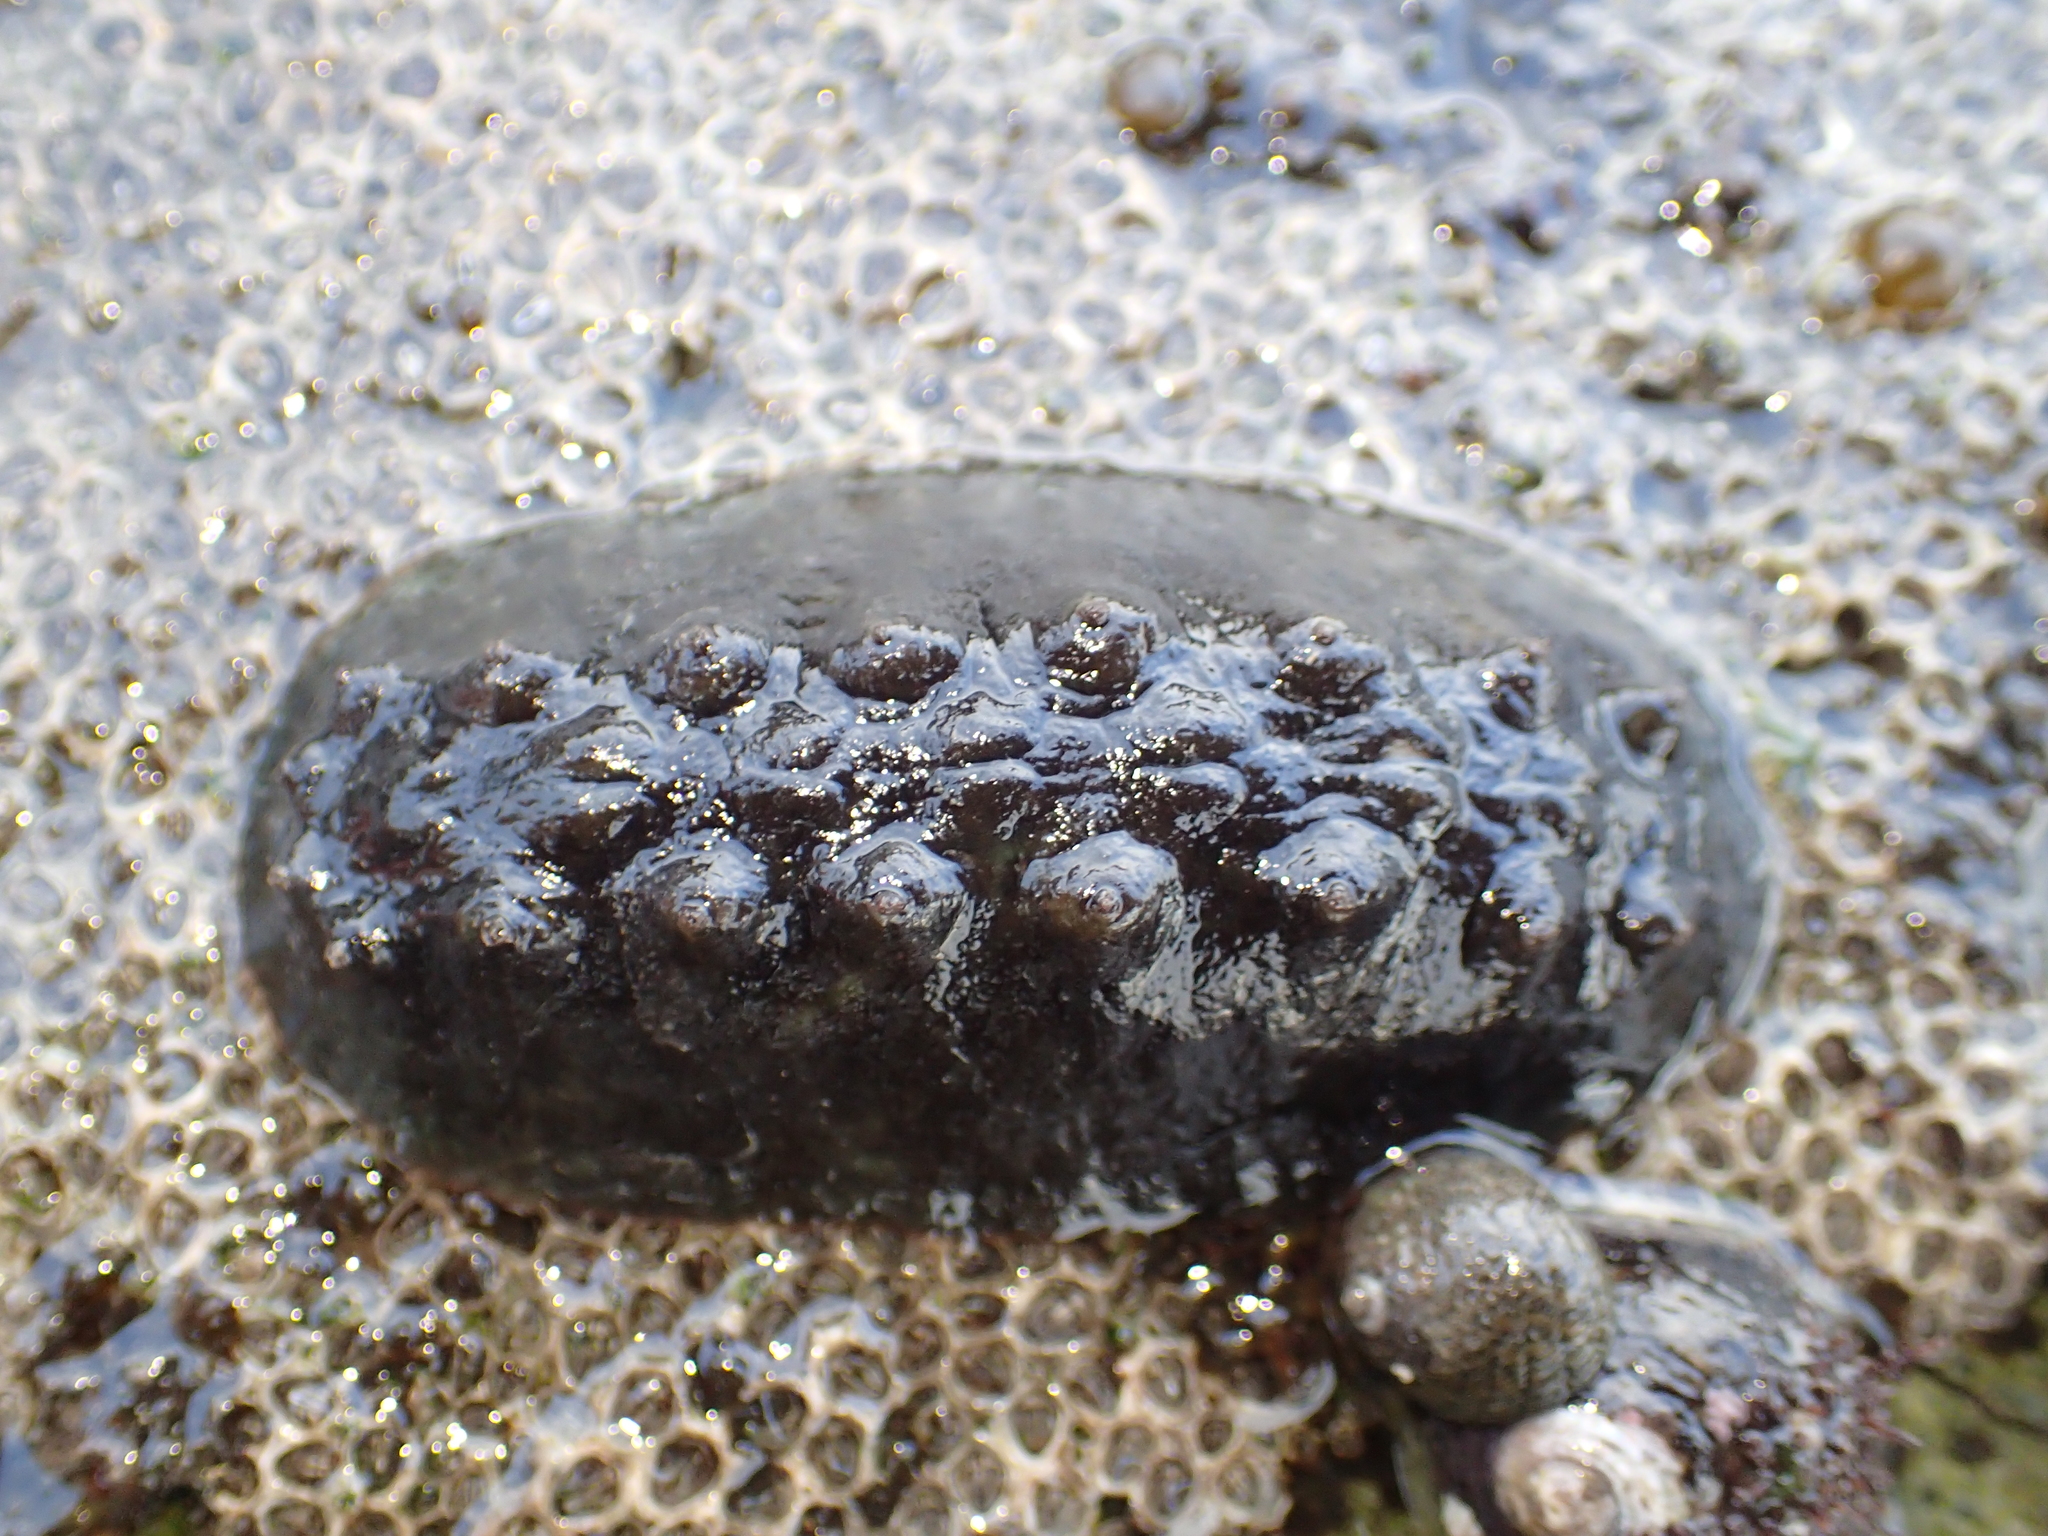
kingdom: Animalia
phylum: Mollusca
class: Polyplacophora
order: Chitonida
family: Acanthochitonidae
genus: Cryptoconchus
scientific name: Cryptoconchus porosus
